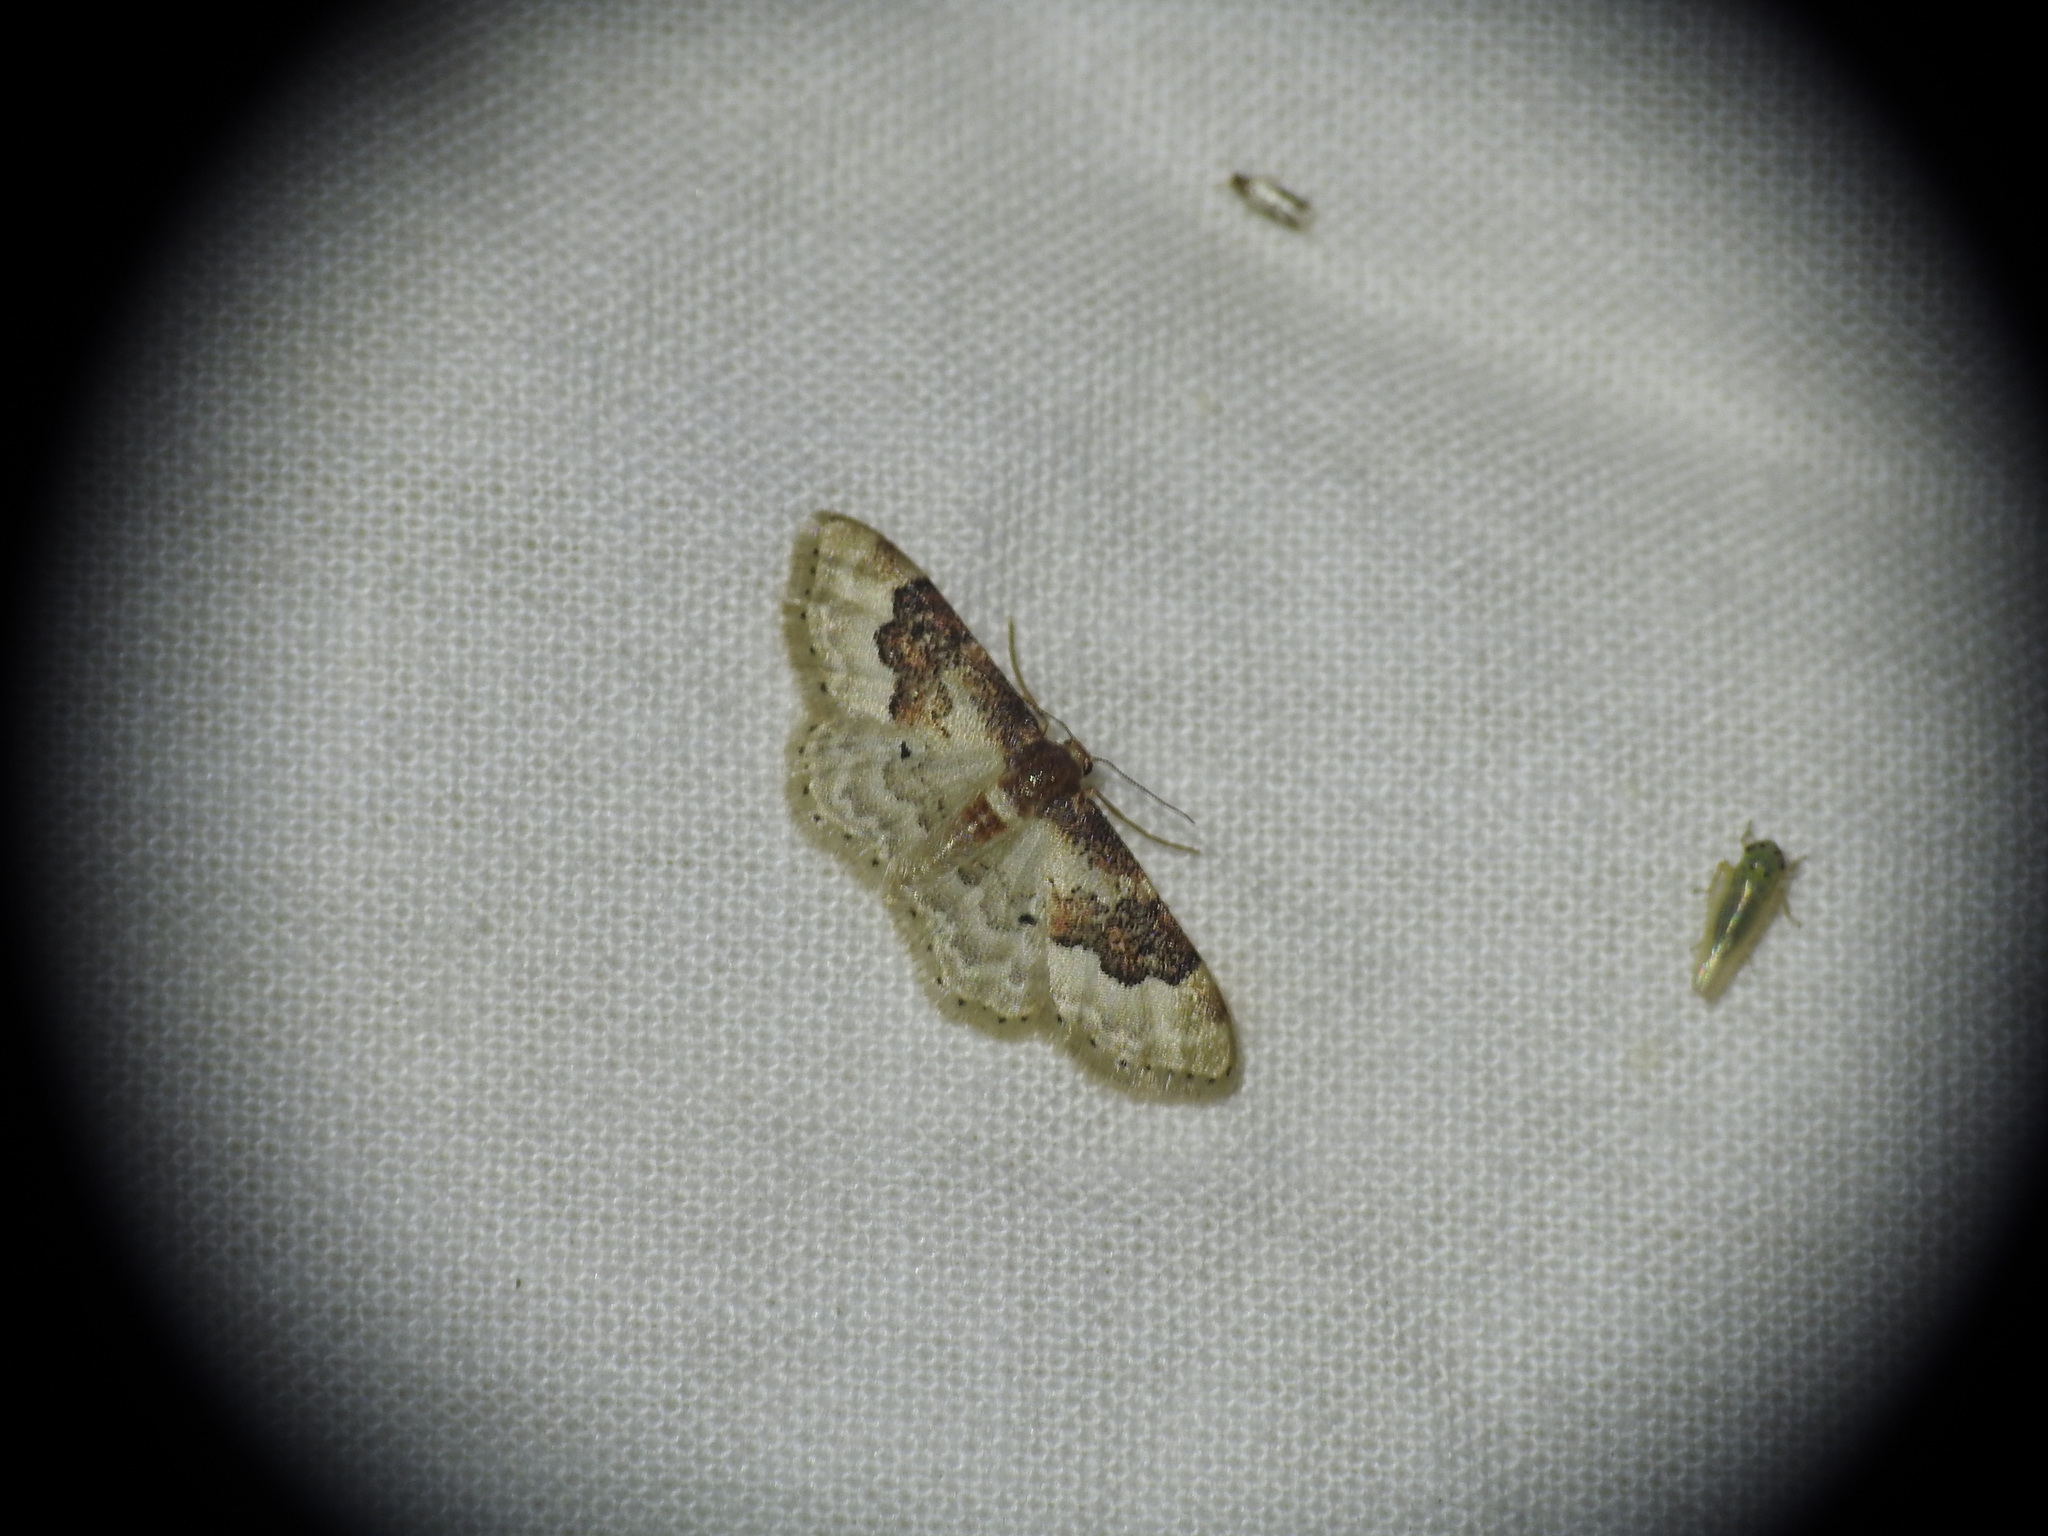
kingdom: Animalia
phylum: Arthropoda
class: Insecta
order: Lepidoptera
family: Geometridae
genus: Idaea
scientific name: Idaea rusticata
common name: Least carpet
